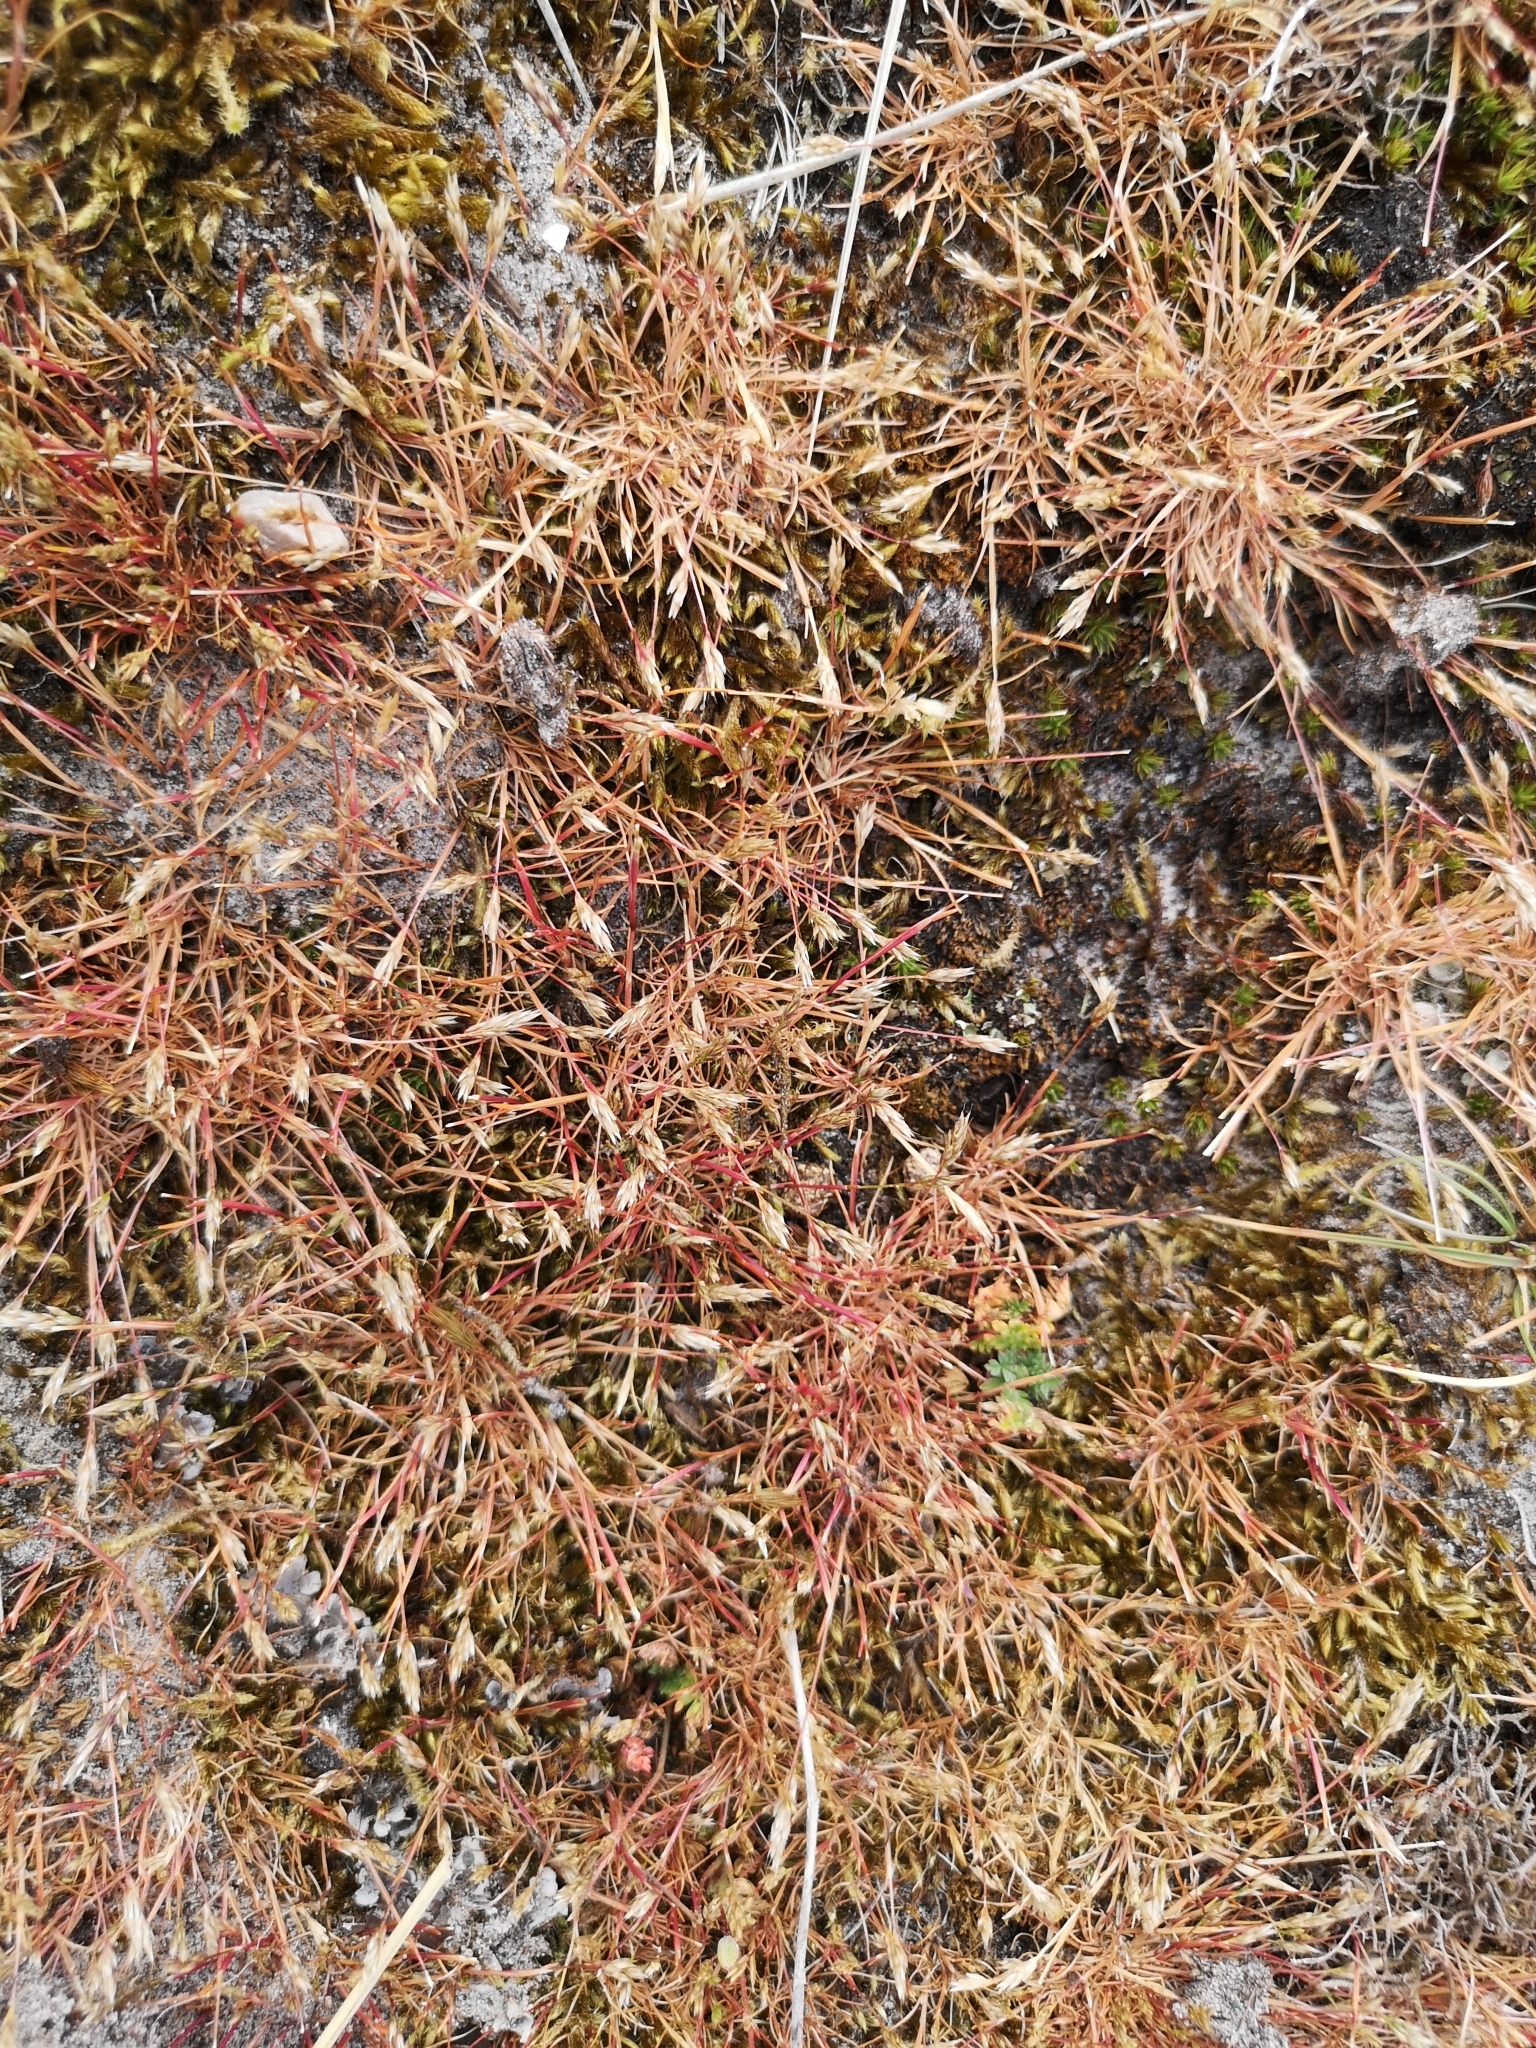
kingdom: Plantae
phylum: Tracheophyta
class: Liliopsida
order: Poales
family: Poaceae
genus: Aira
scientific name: Aira praecox
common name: Early hair-grass
